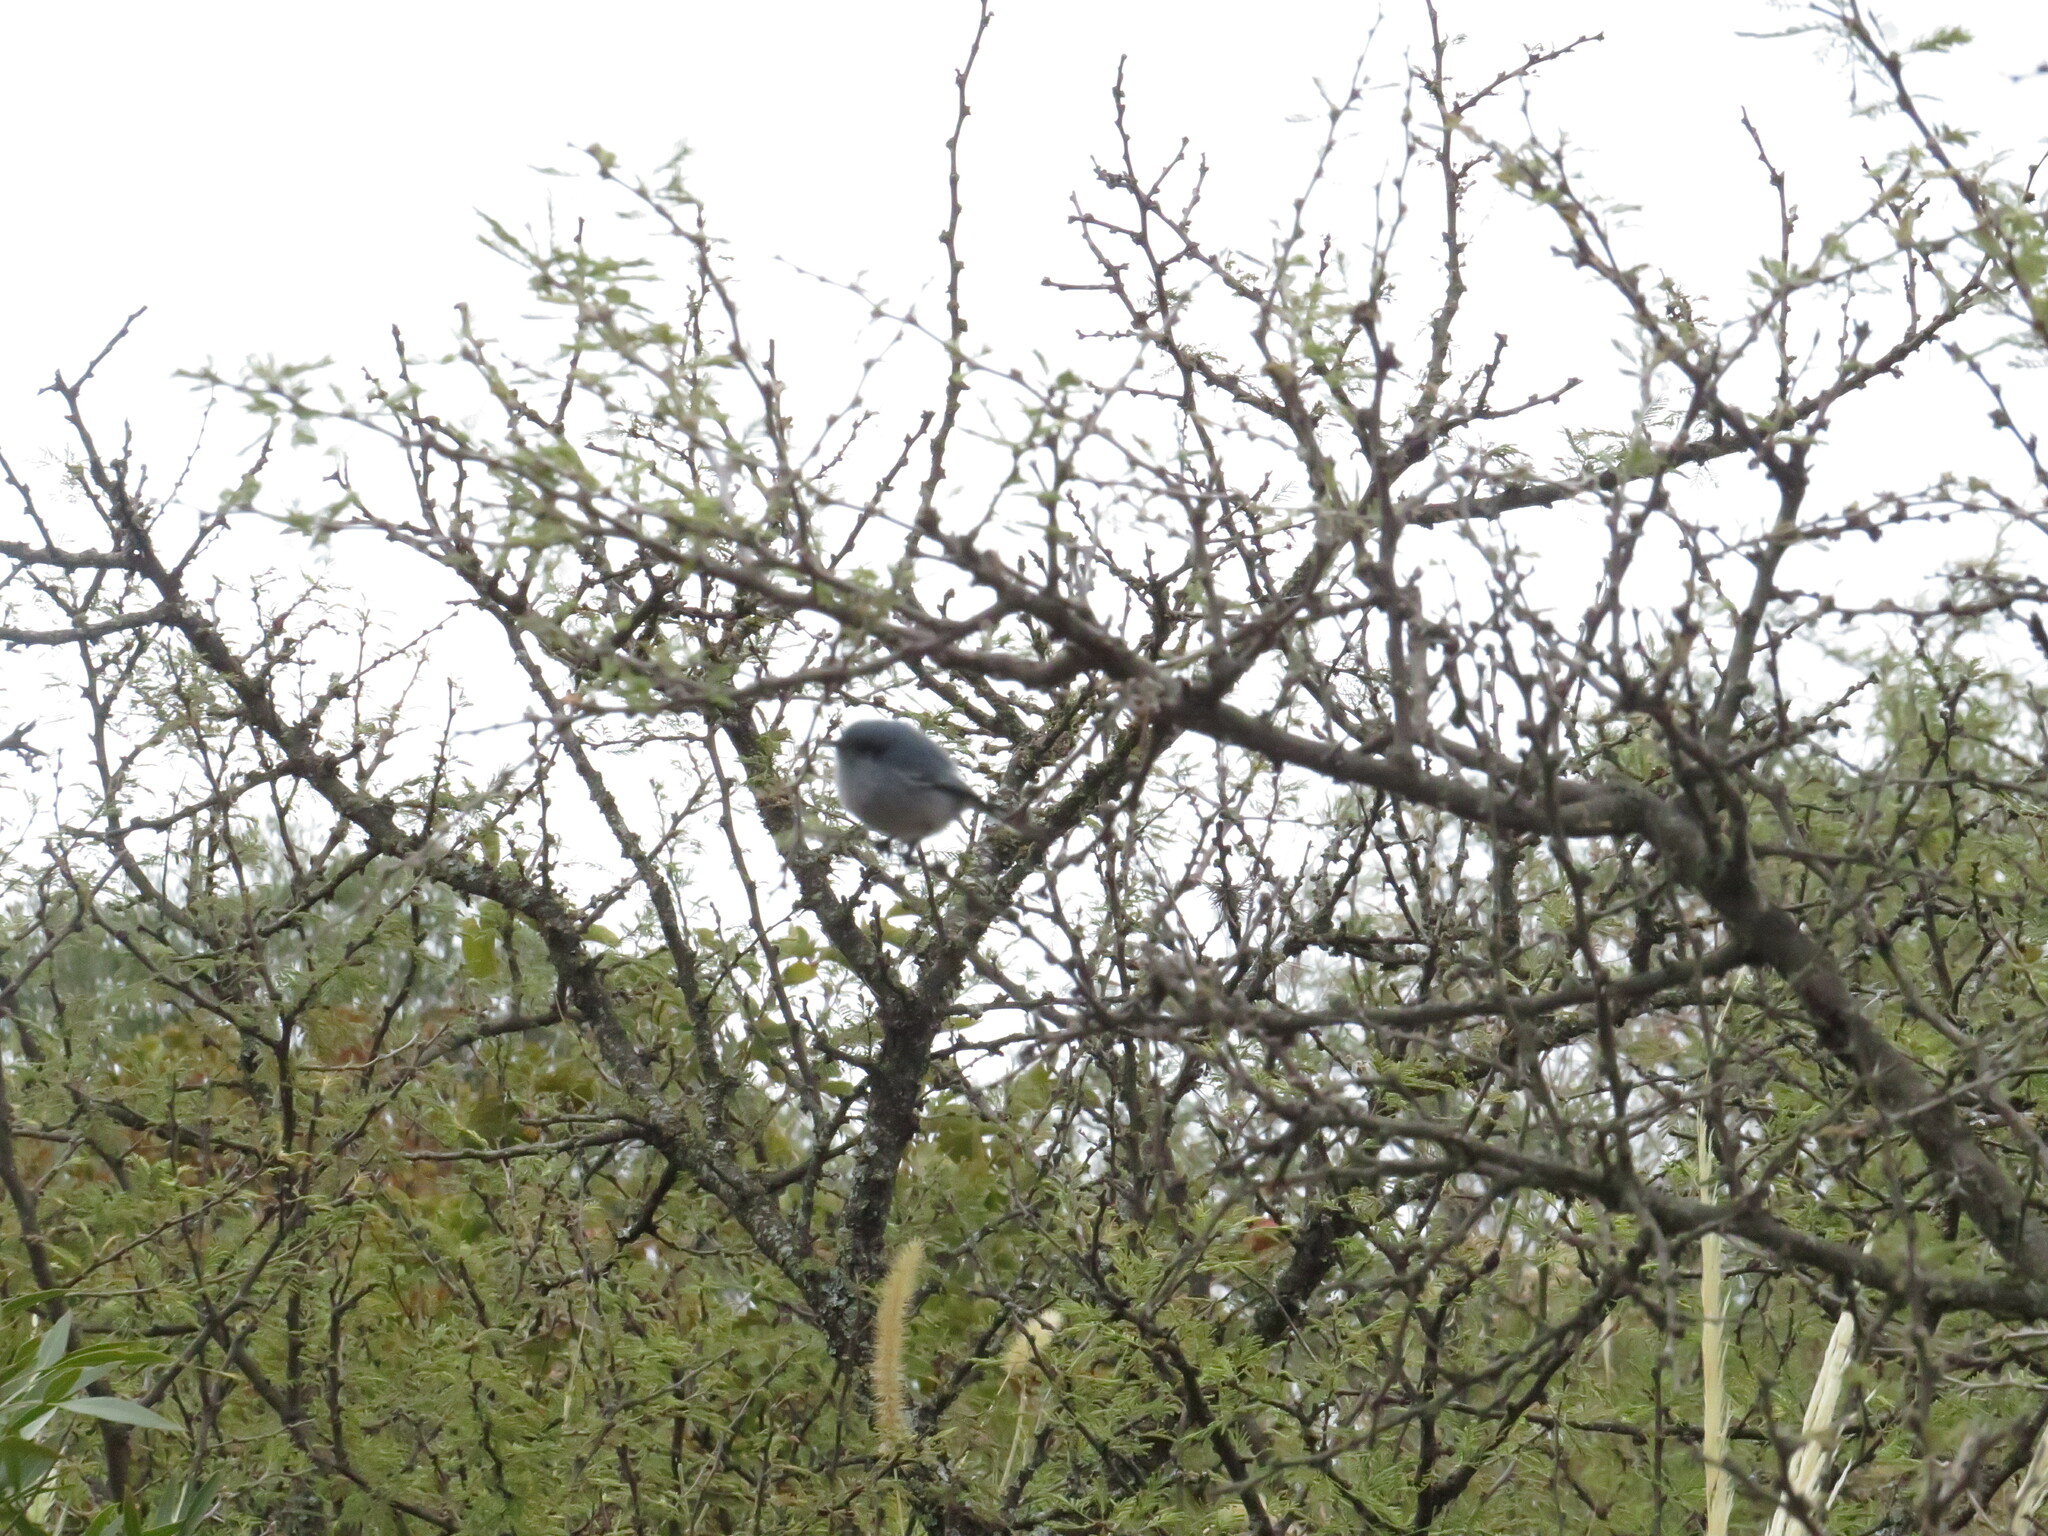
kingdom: Animalia
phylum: Chordata
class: Aves
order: Passeriformes
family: Polioptilidae
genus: Polioptila
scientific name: Polioptila dumicola
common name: Masked gnatcatcher
